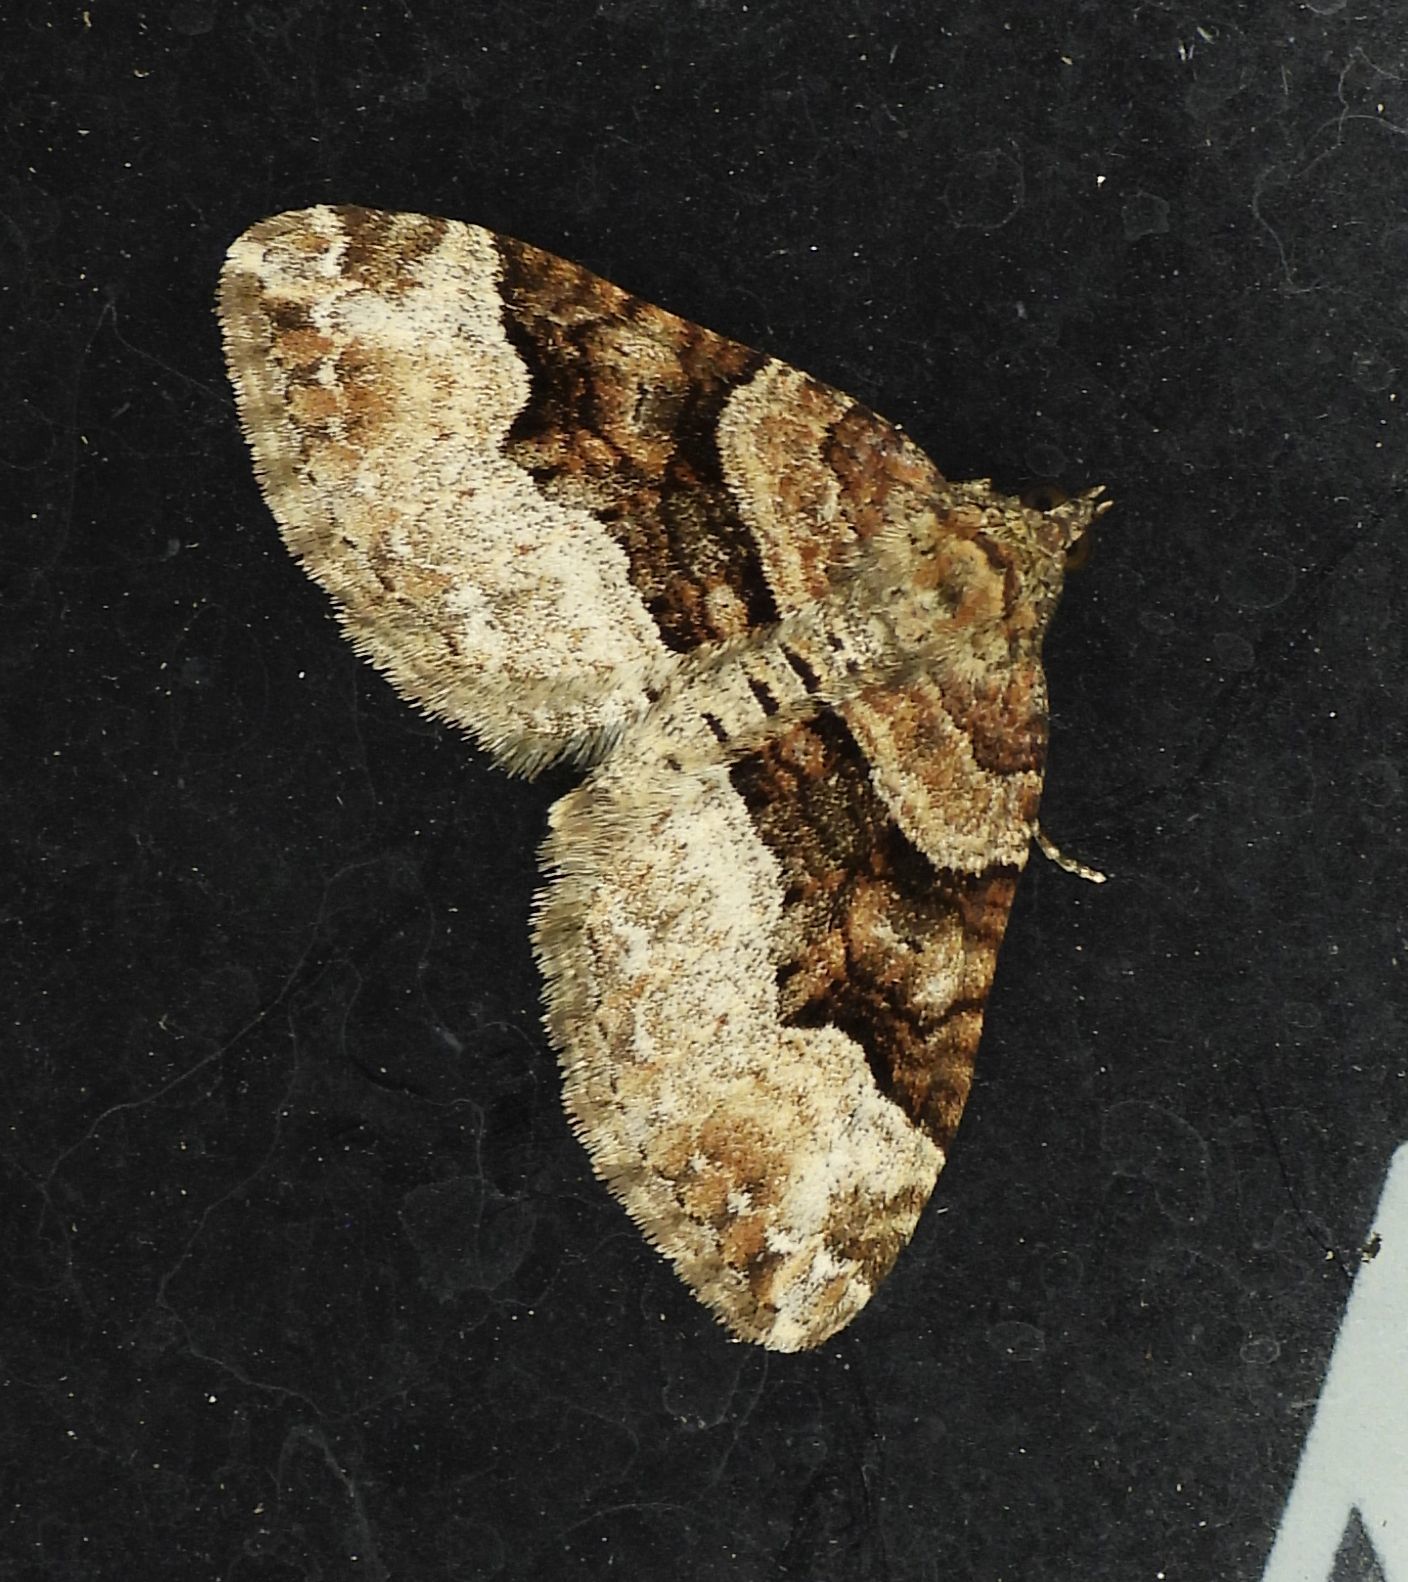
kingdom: Animalia
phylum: Arthropoda
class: Insecta
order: Lepidoptera
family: Geometridae
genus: Xanthorhoe
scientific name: Xanthorhoe lacustrata
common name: Toothed brown carpet
